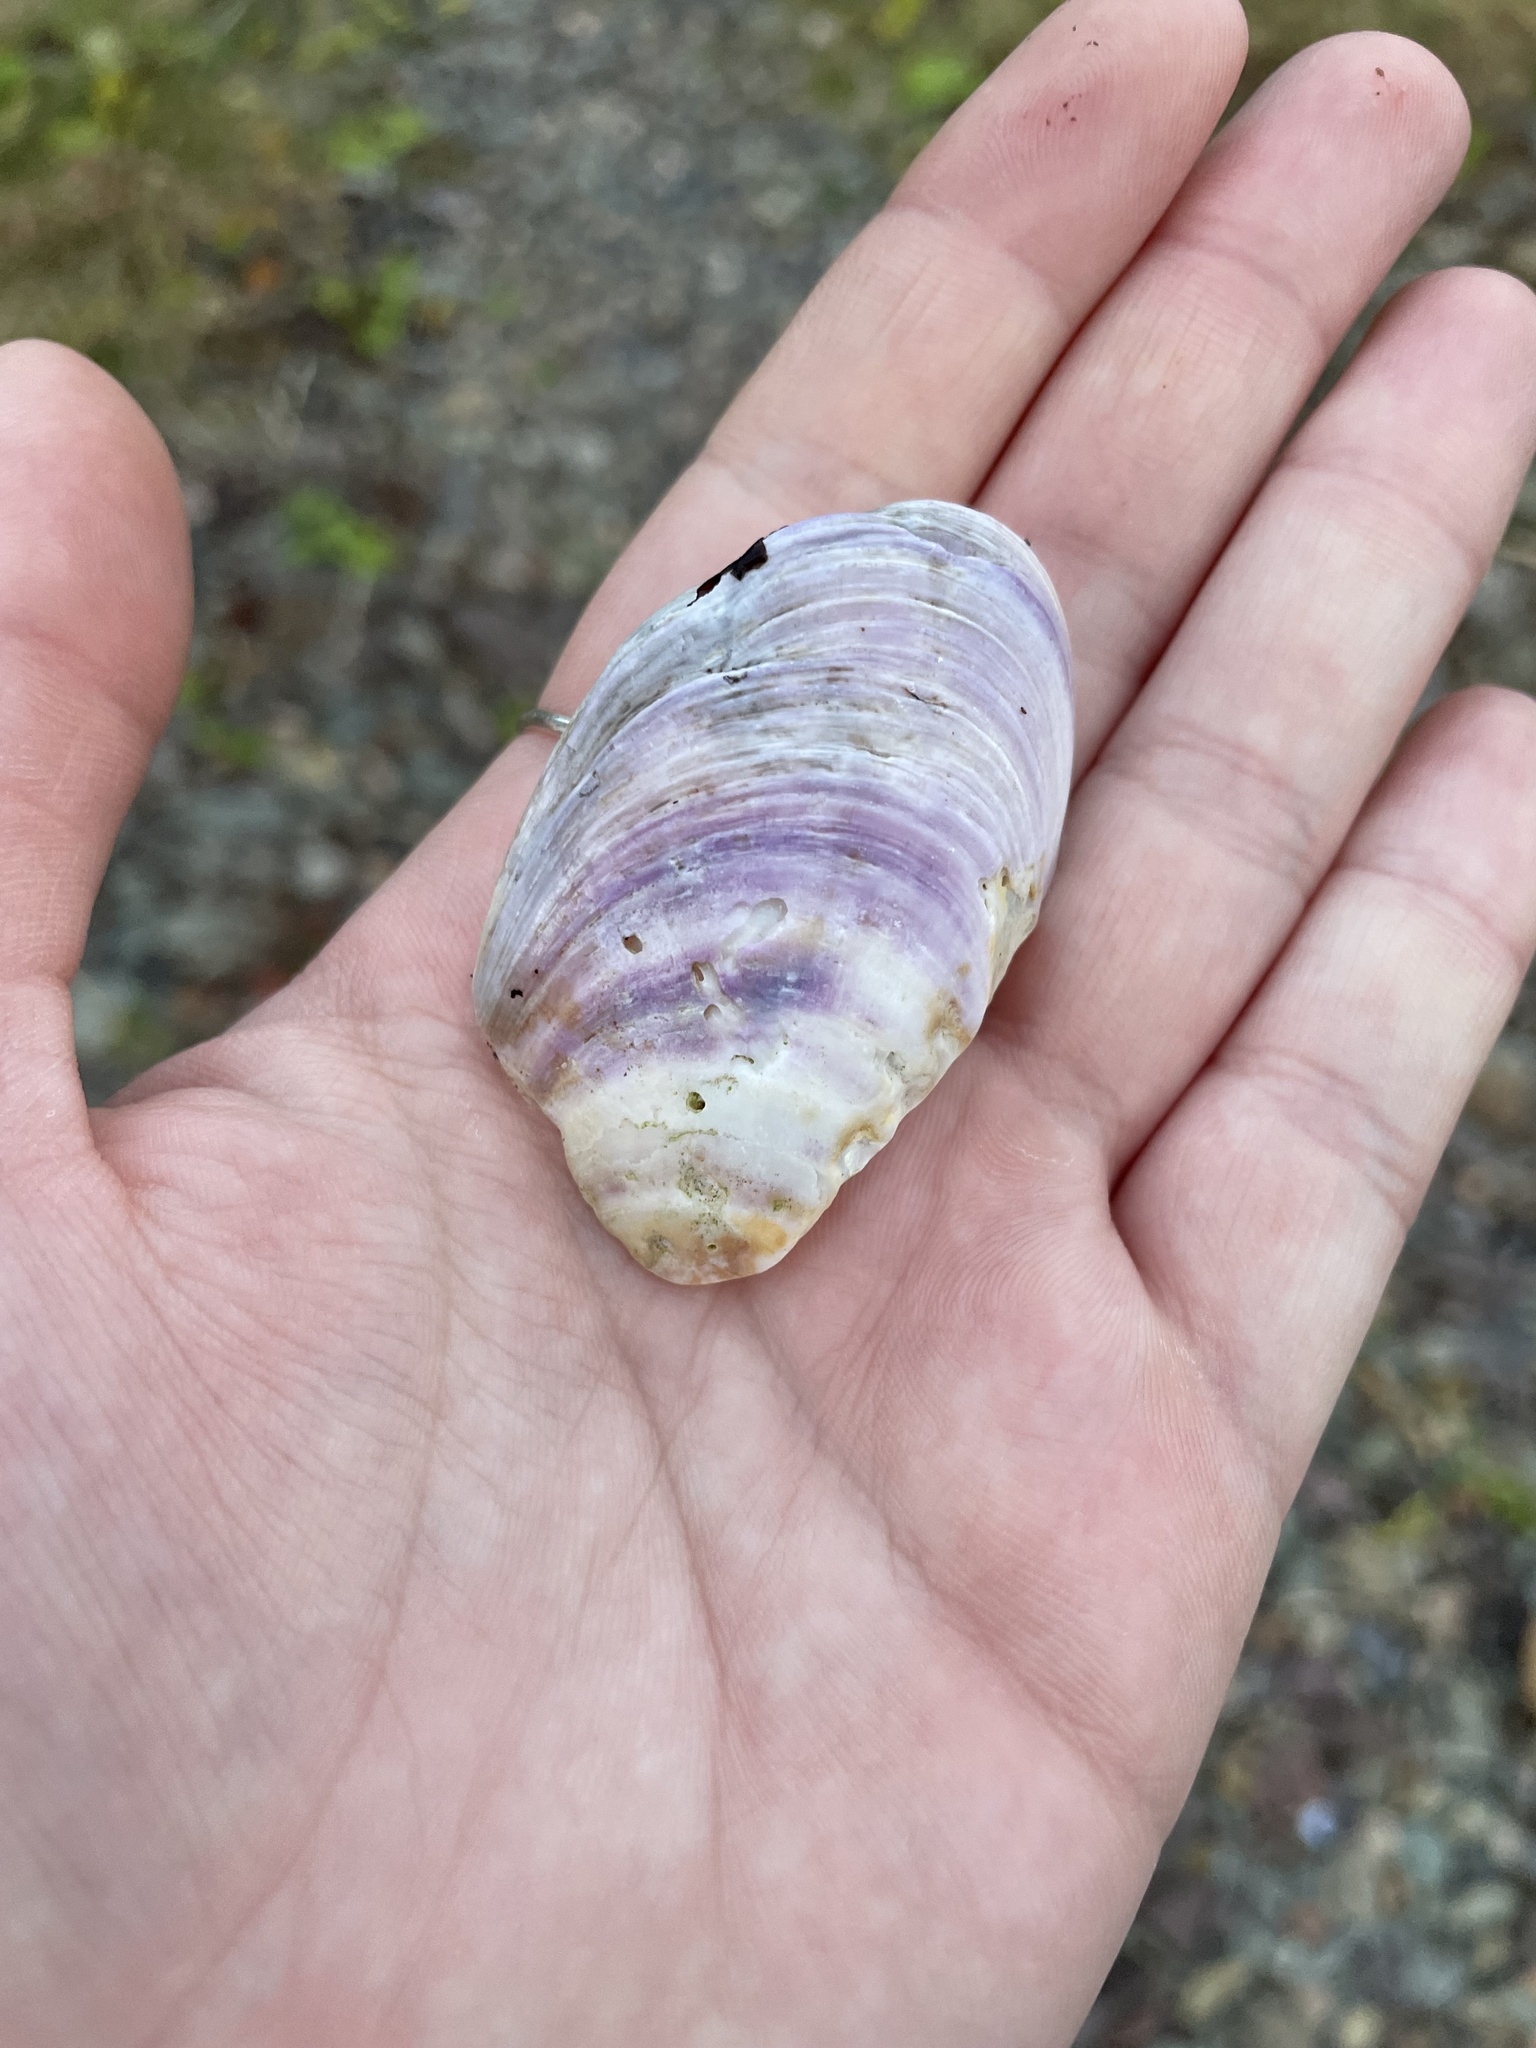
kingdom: Animalia
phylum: Mollusca
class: Bivalvia
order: Mytilida
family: Mytilidae
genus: Modiolus
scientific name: Modiolus modiolus
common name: Horse-mussel
